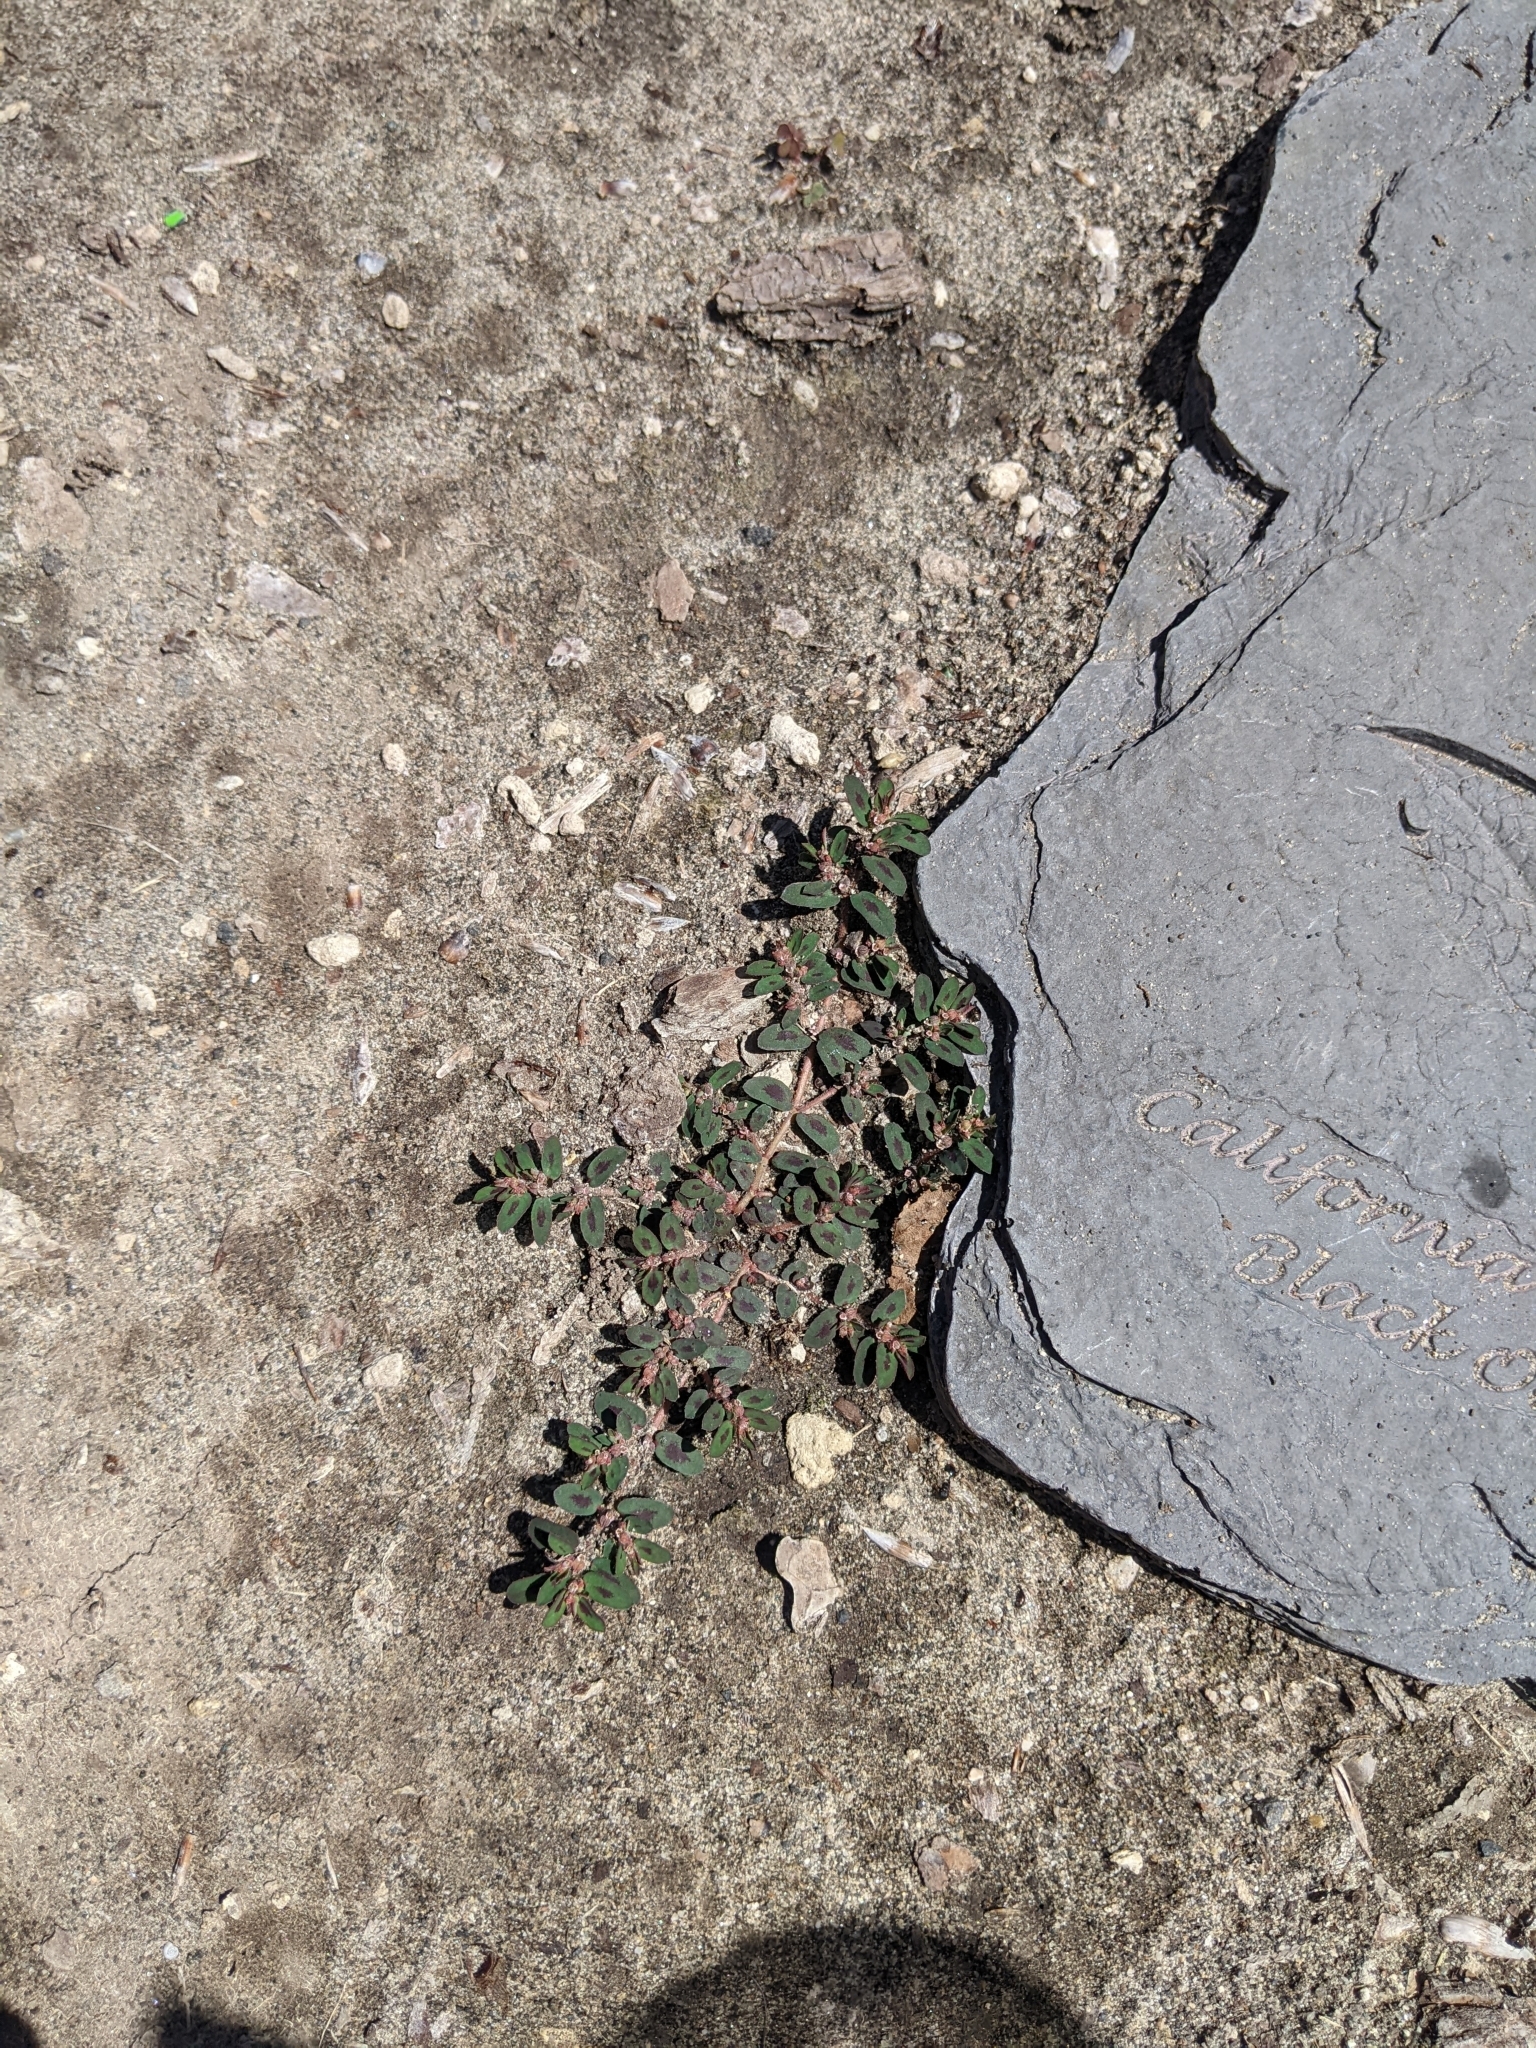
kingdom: Plantae
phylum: Tracheophyta
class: Magnoliopsida
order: Malpighiales
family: Euphorbiaceae
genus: Euphorbia
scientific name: Euphorbia maculata
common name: Spotted spurge
